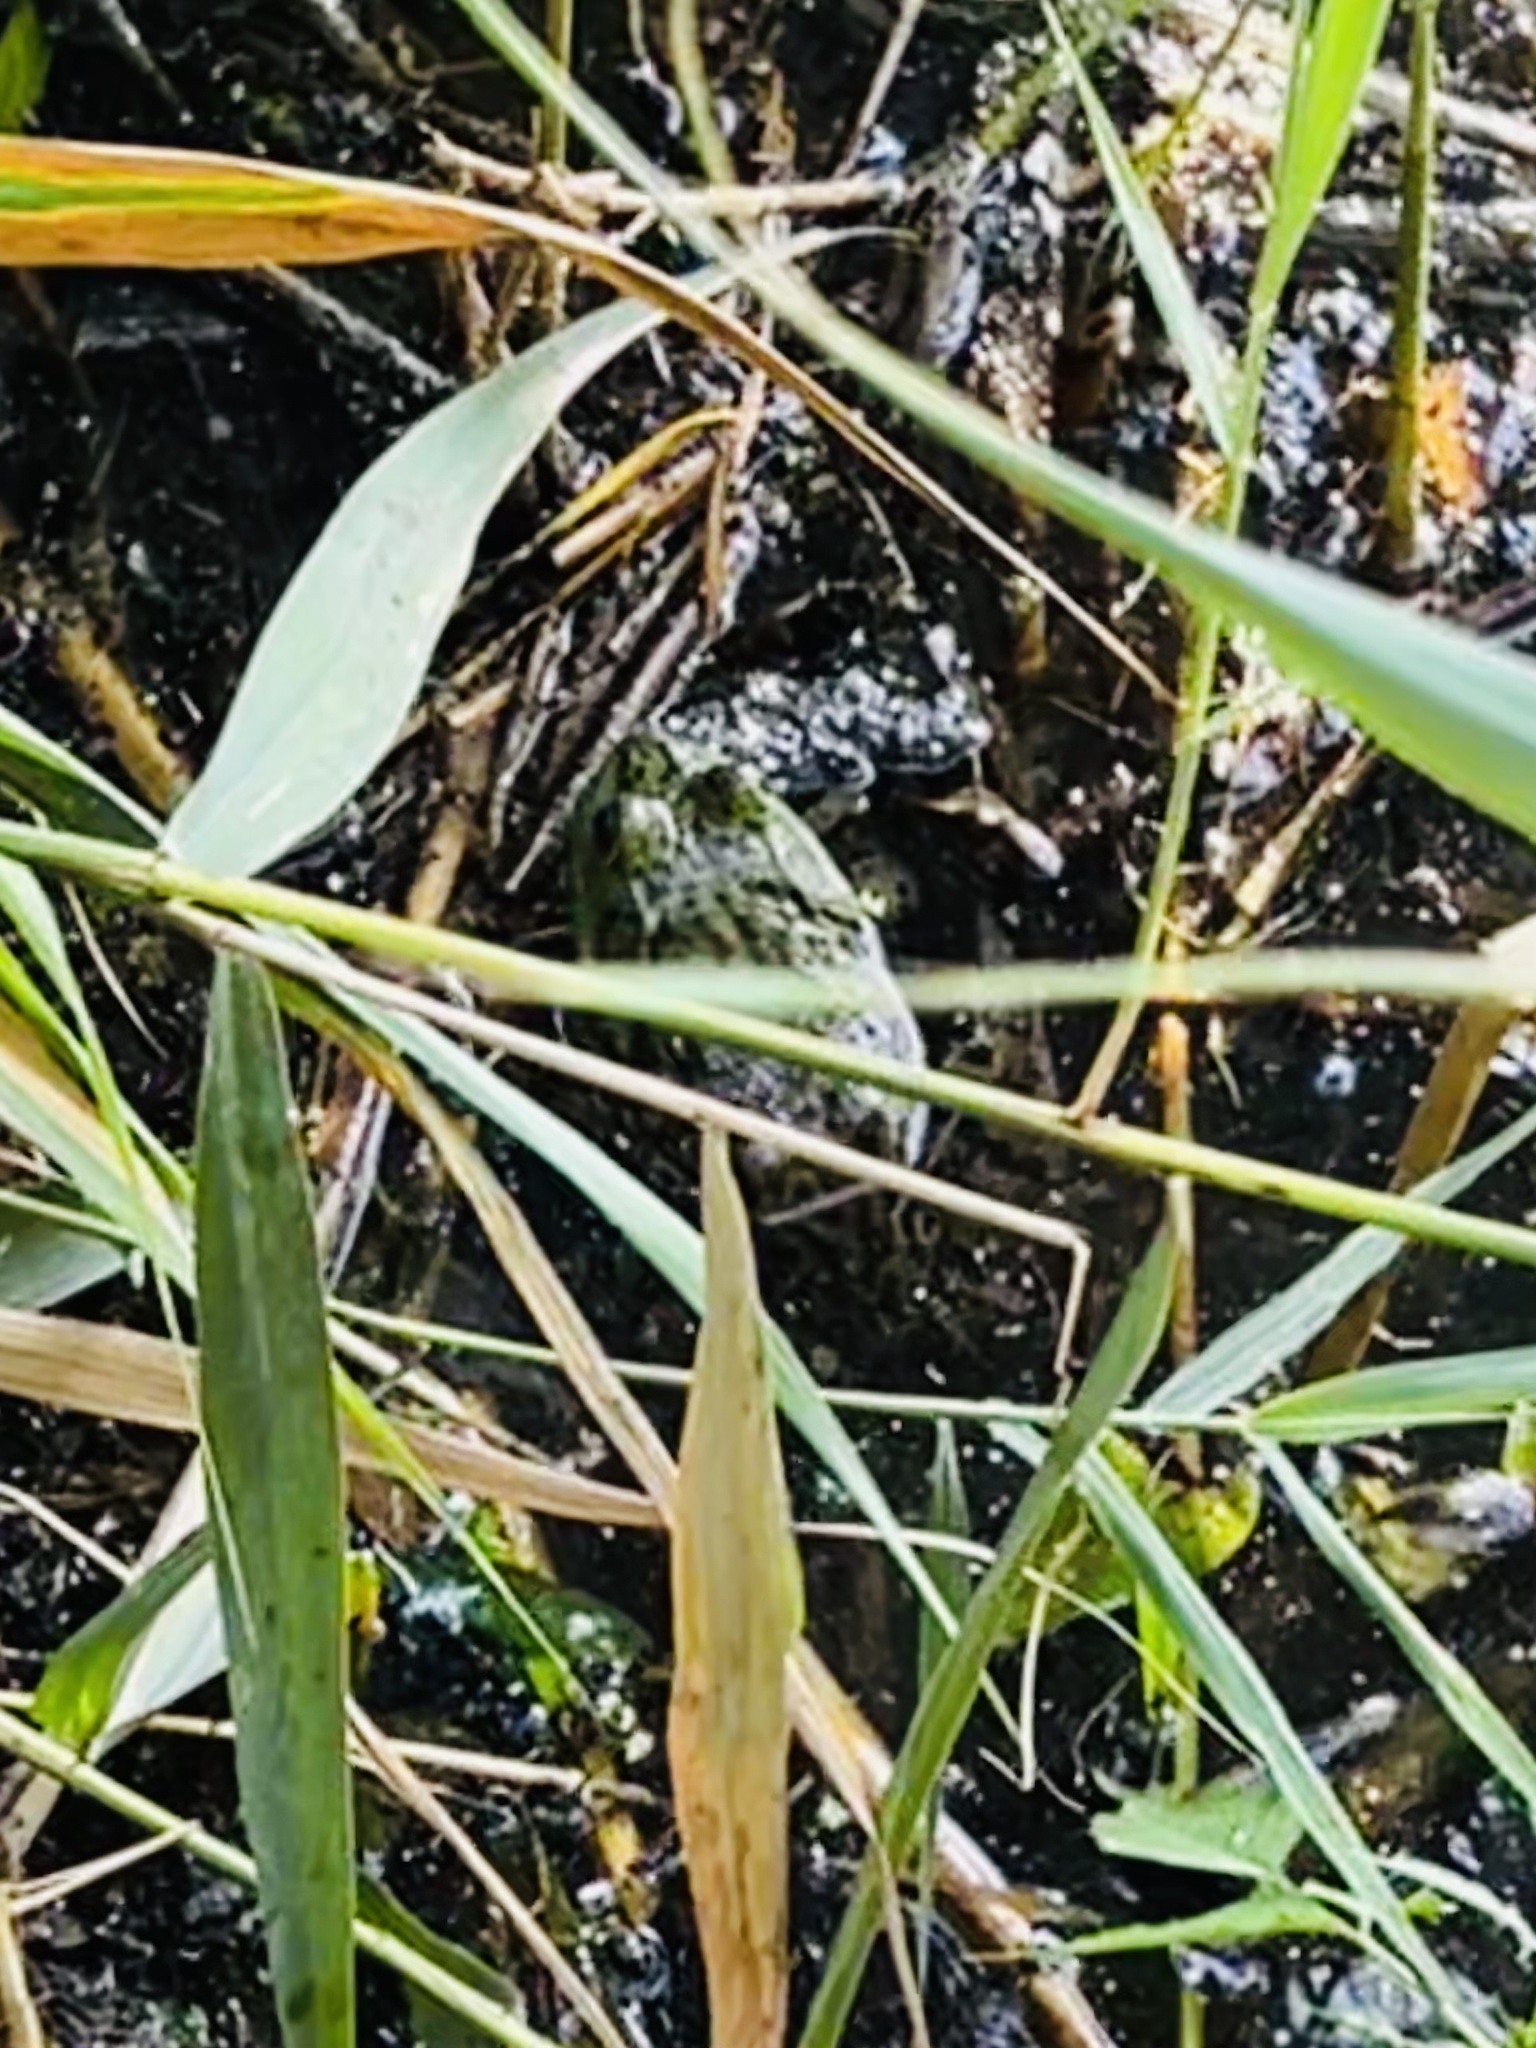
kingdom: Animalia
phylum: Chordata
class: Amphibia
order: Anura
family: Ranidae
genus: Lithobates
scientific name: Lithobates catesbeianus
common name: American bullfrog
